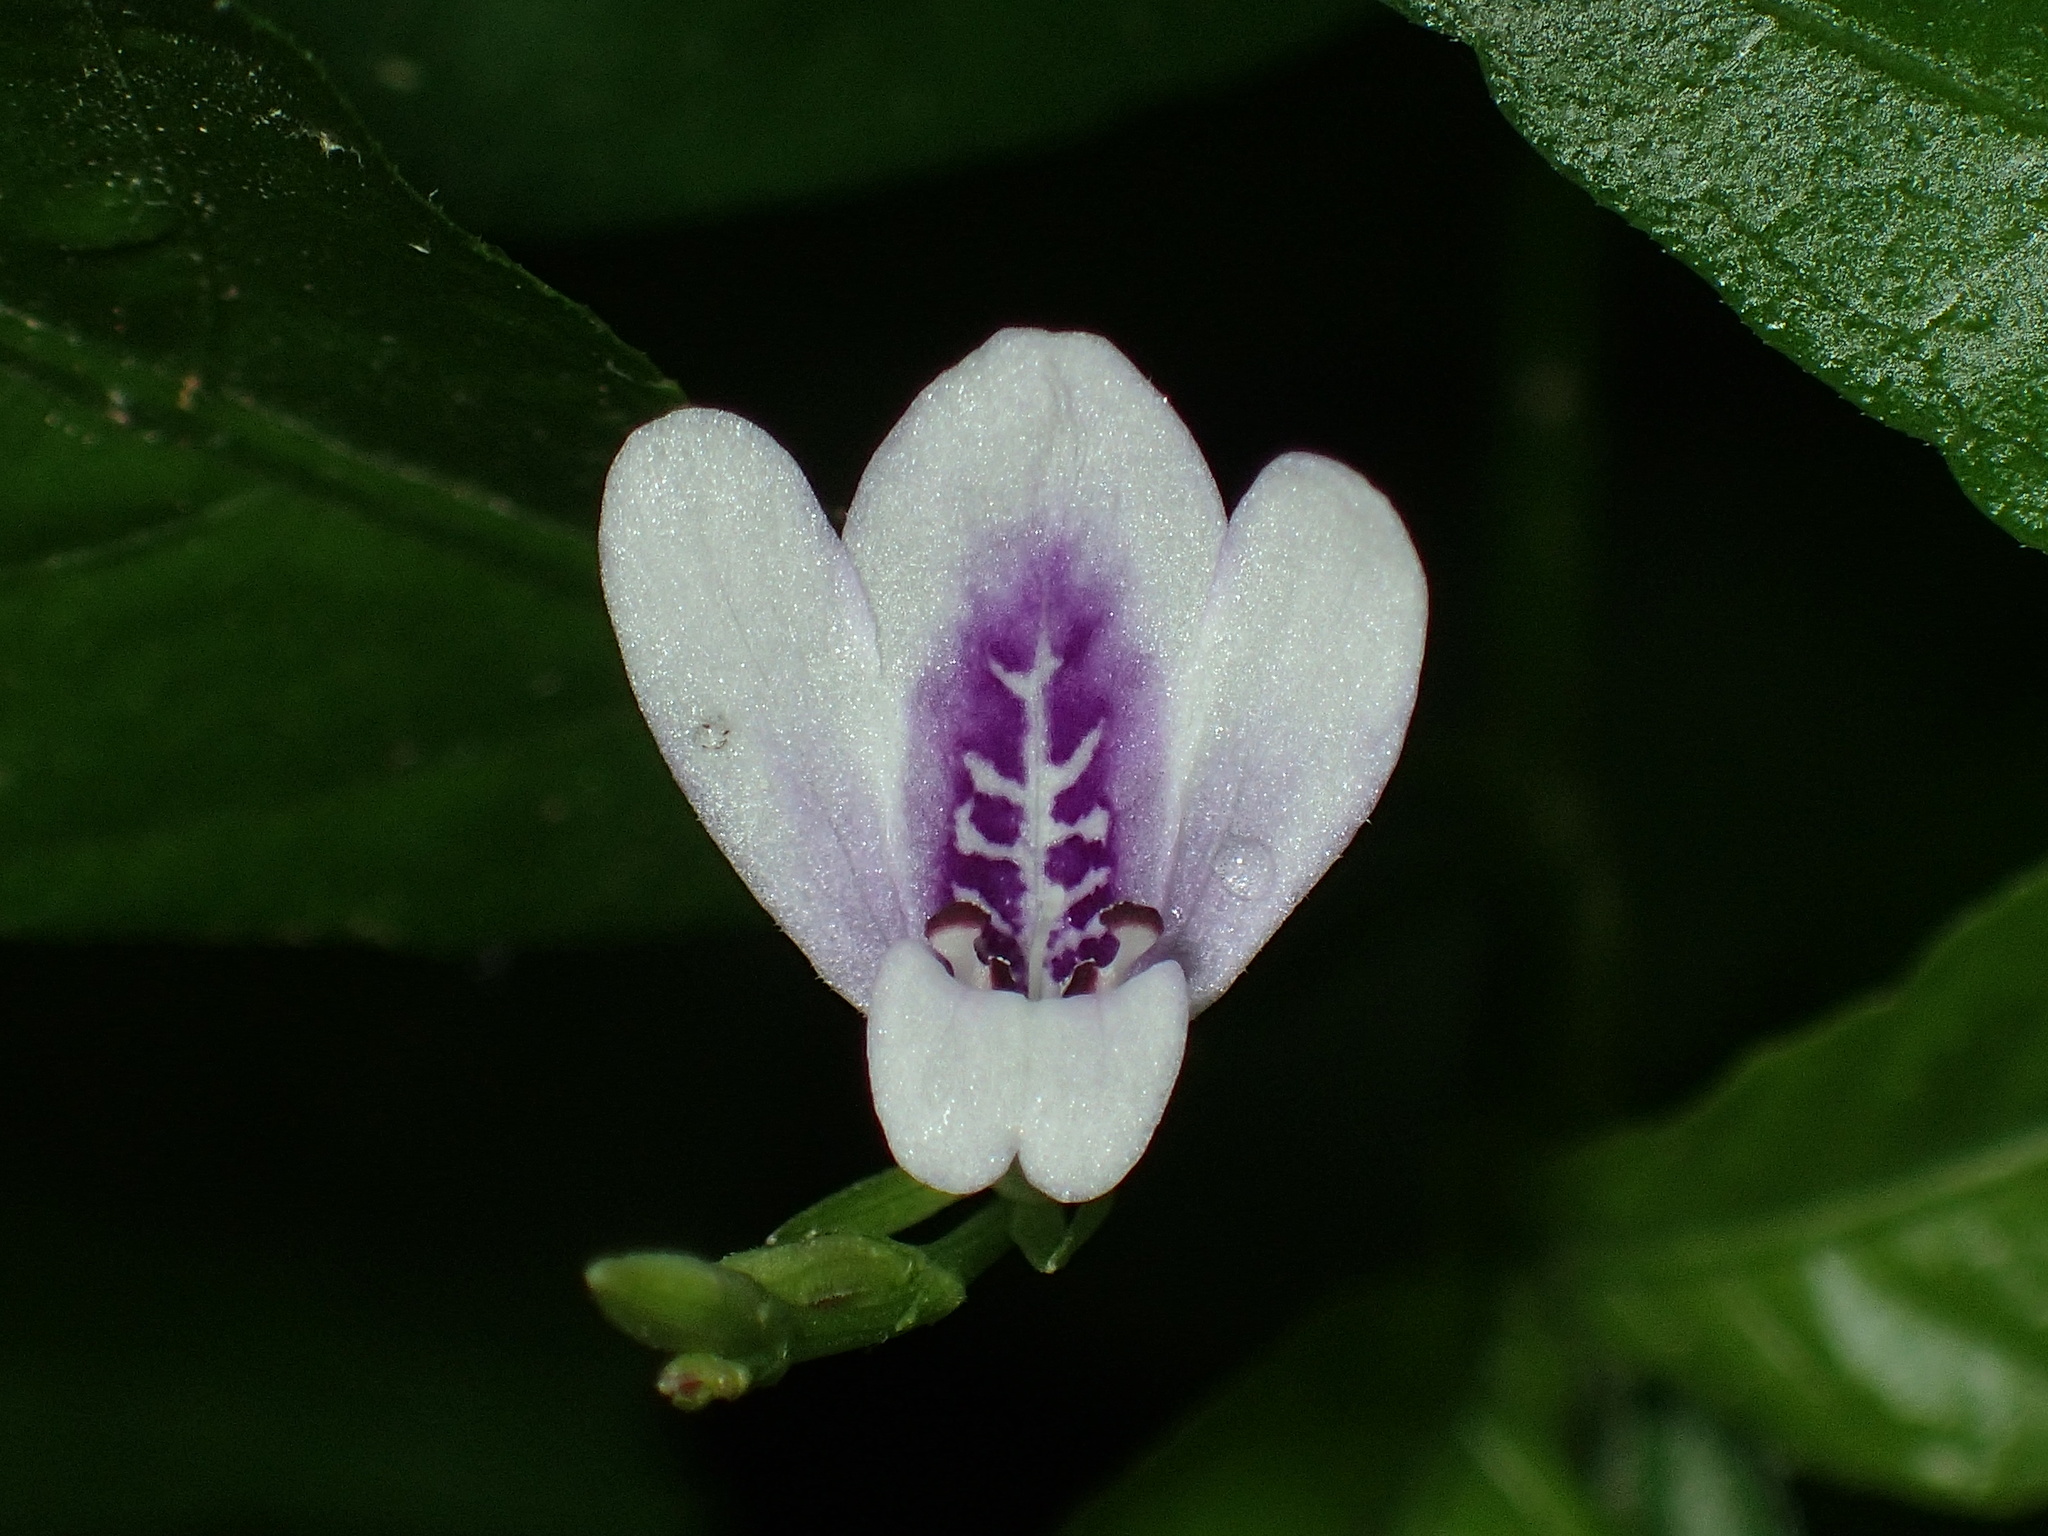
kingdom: Plantae
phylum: Tracheophyta
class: Magnoliopsida
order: Lamiales
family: Acanthaceae
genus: Justicia
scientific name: Justicia lanceolata
